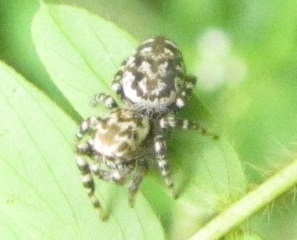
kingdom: Animalia
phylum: Arthropoda
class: Arachnida
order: Araneae
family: Salticidae
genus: Pelegrina
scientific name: Pelegrina galathea
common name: Jumping spiders
